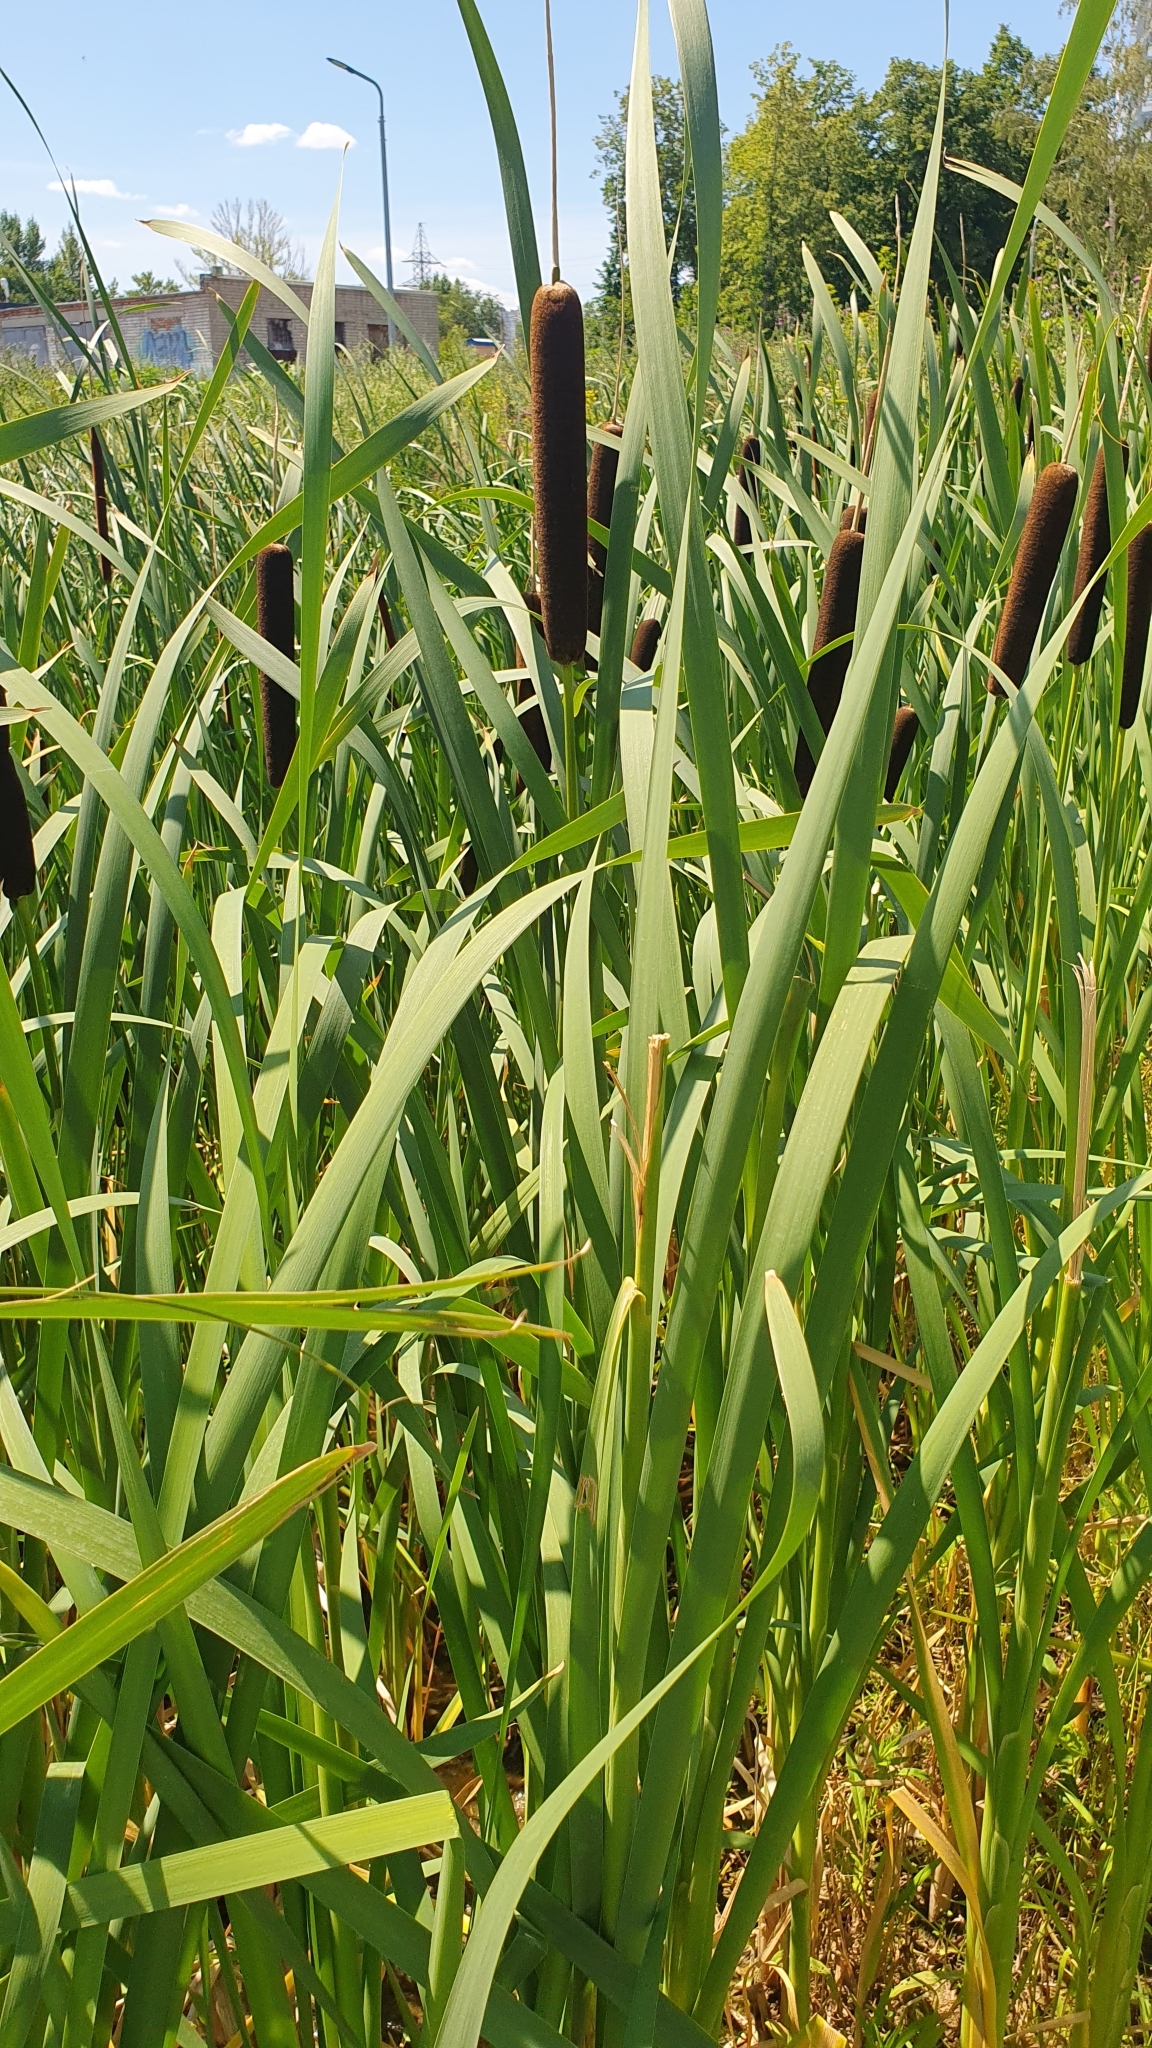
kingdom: Plantae
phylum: Tracheophyta
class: Liliopsida
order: Poales
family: Typhaceae
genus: Typha
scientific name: Typha latifolia
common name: Broadleaf cattail
